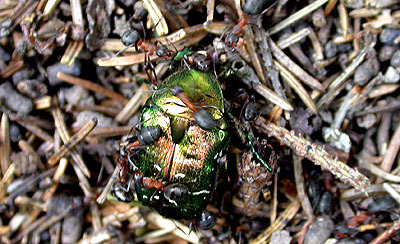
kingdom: Animalia
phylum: Arthropoda
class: Insecta
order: Hymenoptera
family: Formicidae
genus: Formica
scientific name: Formica
